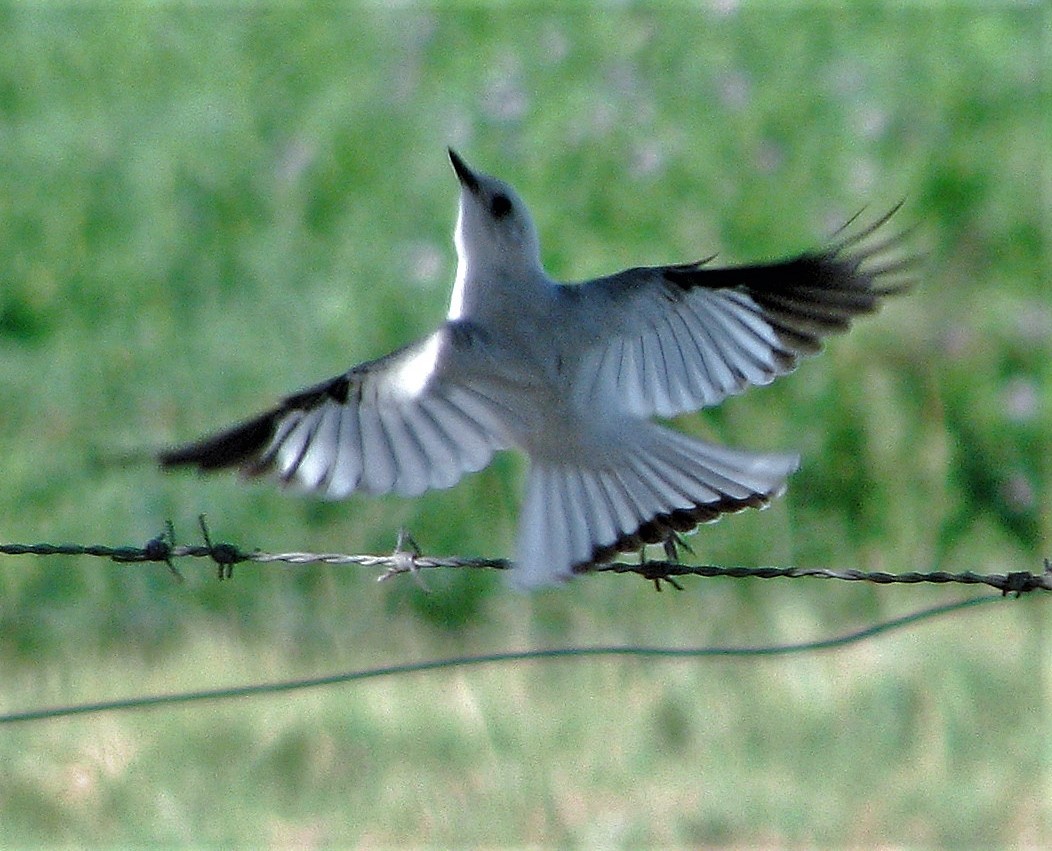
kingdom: Animalia
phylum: Chordata
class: Aves
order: Passeriformes
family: Tyrannidae
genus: Xolmis
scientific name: Xolmis irupero
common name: White monjita
